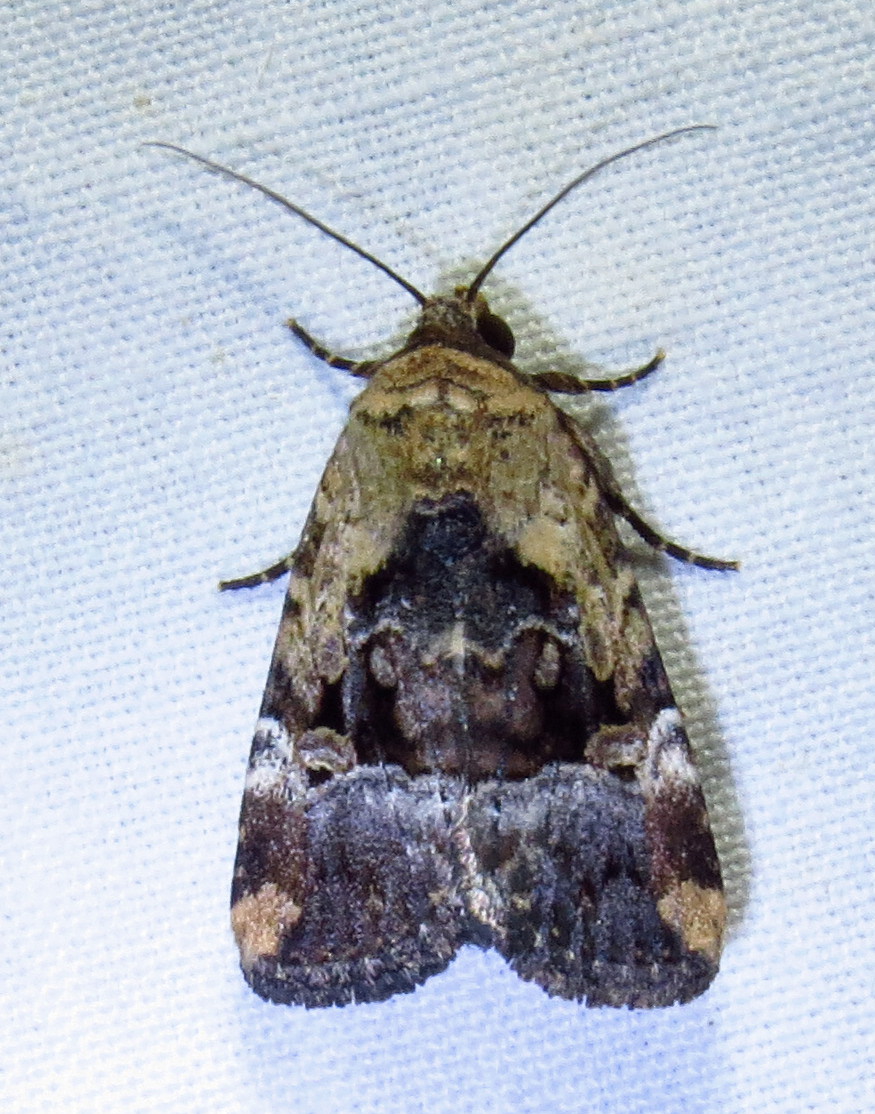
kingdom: Animalia
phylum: Arthropoda
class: Insecta
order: Lepidoptera
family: Noctuidae
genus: Elaphria
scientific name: Elaphria chalcedonia
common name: Chalcedony midget
